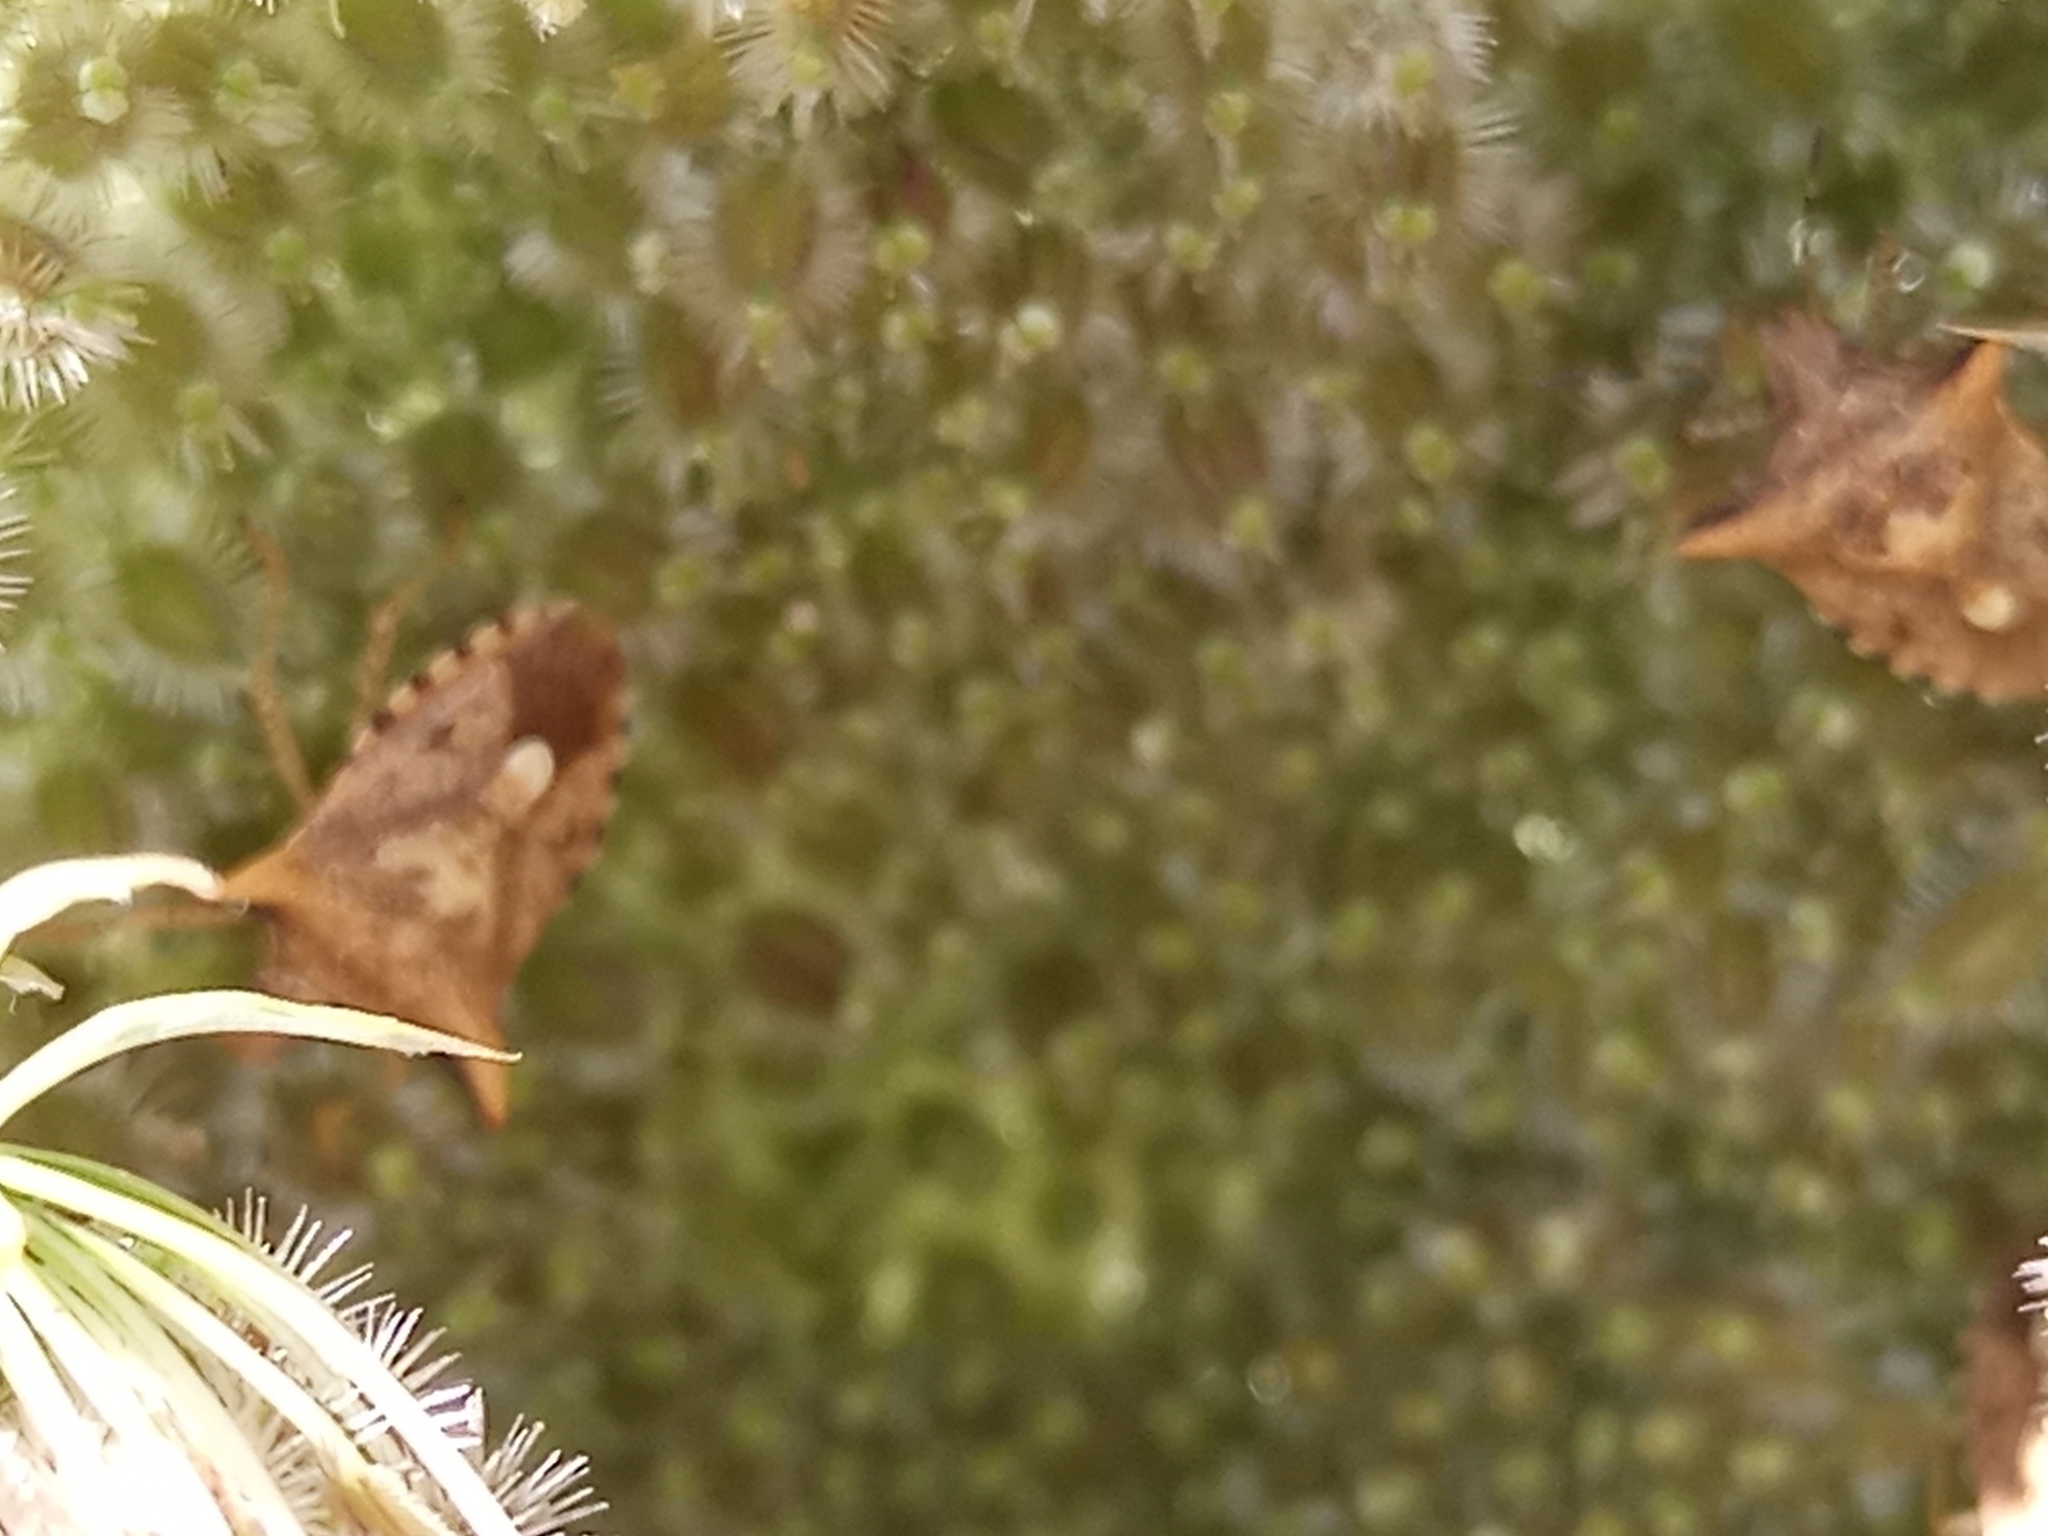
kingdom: Animalia
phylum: Arthropoda
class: Insecta
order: Hemiptera
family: Pentatomidae
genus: Adustonotus
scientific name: Adustonotus
